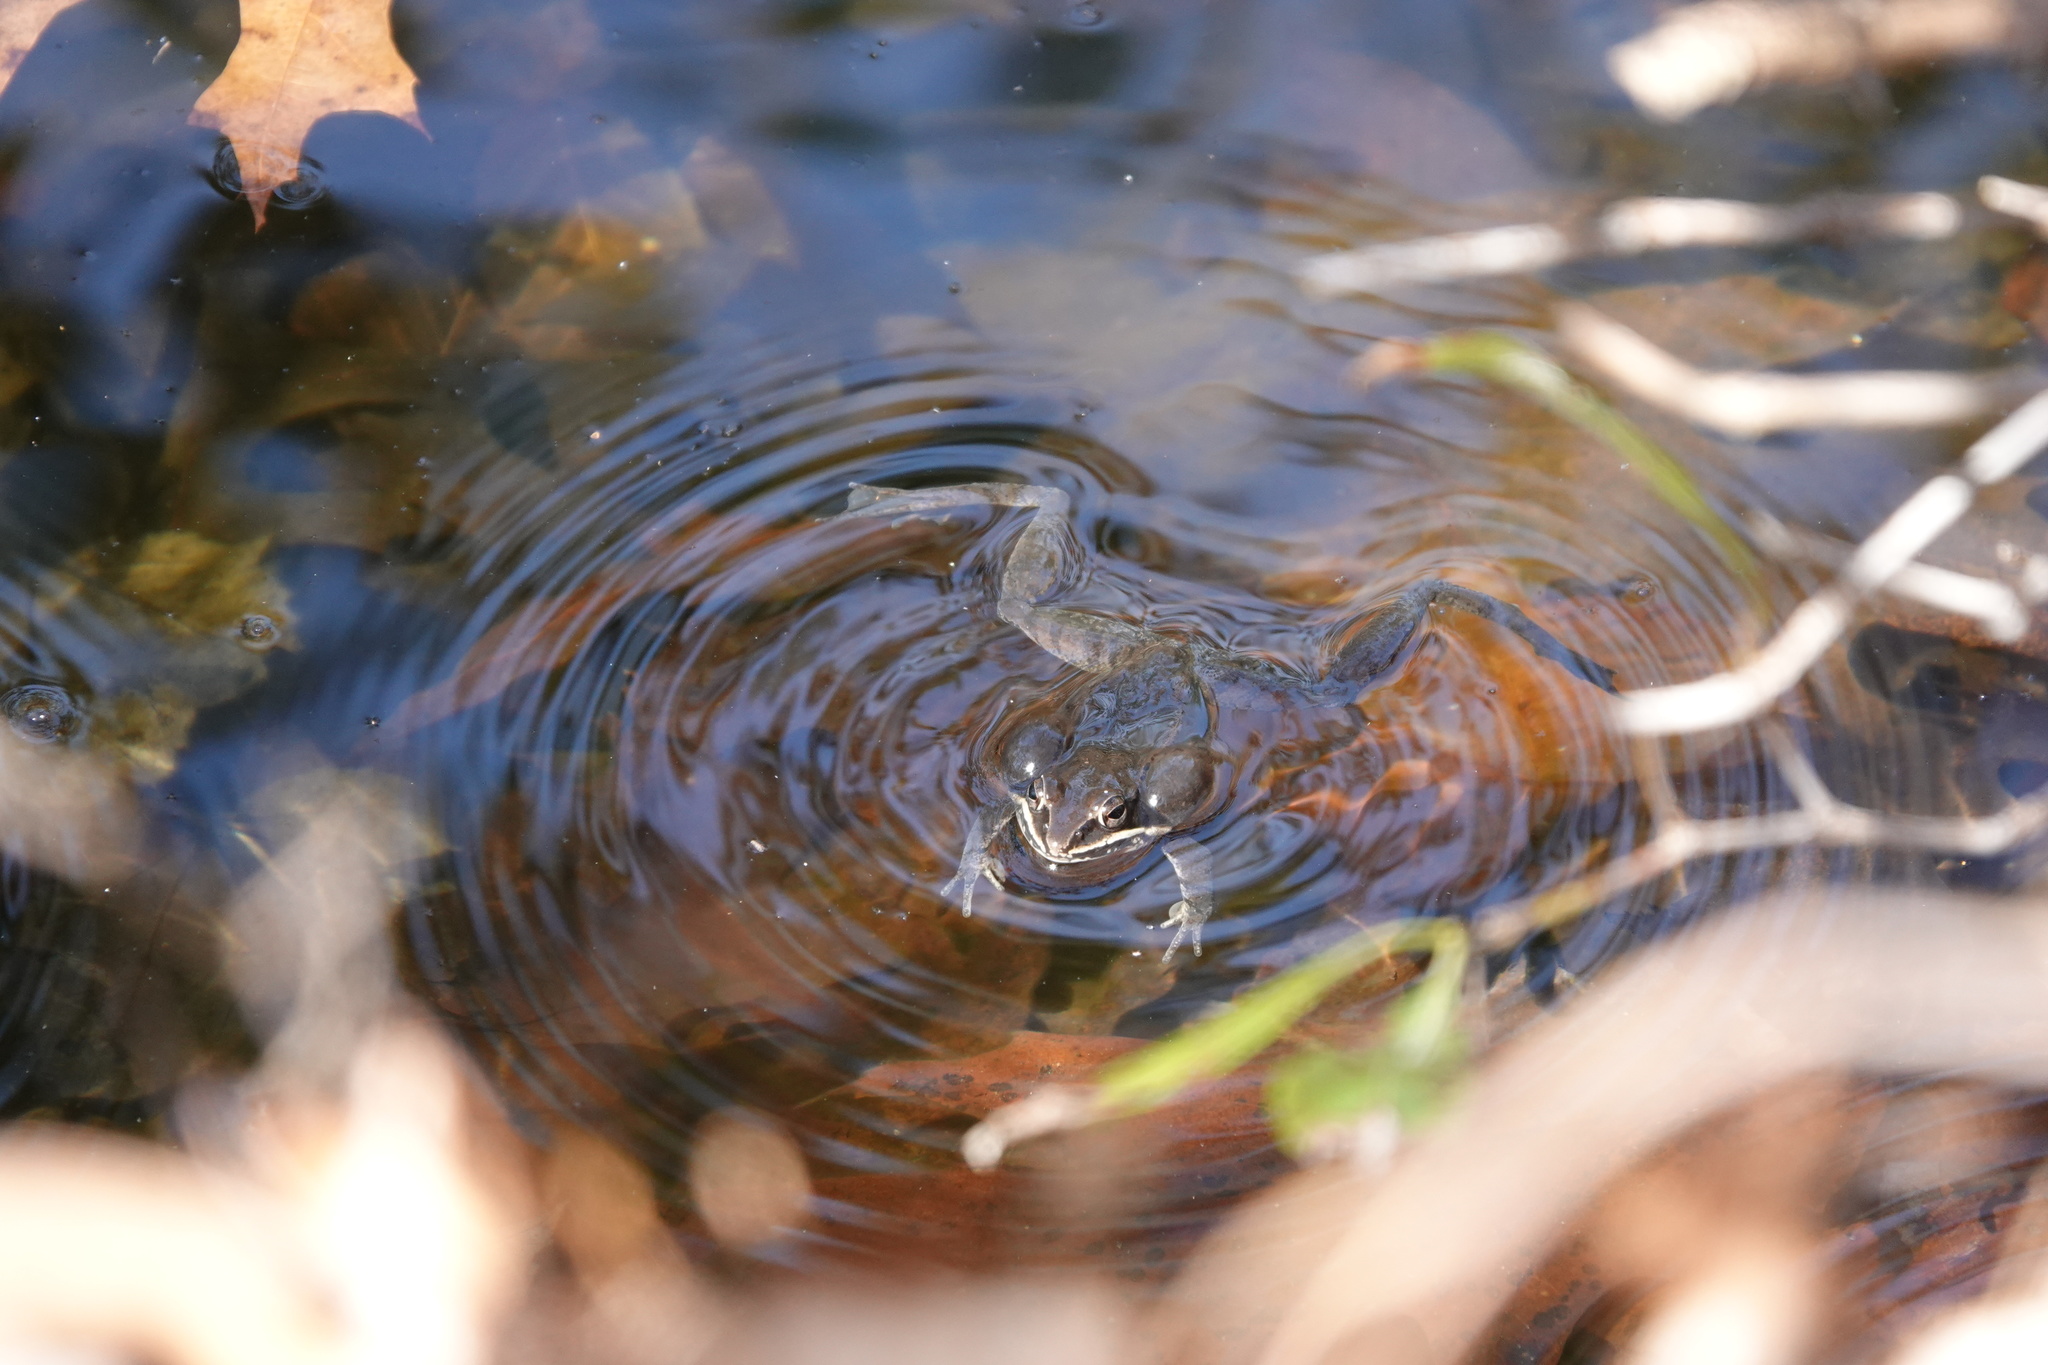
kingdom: Animalia
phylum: Chordata
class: Amphibia
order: Anura
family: Ranidae
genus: Lithobates
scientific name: Lithobates sylvaticus
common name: Wood frog
